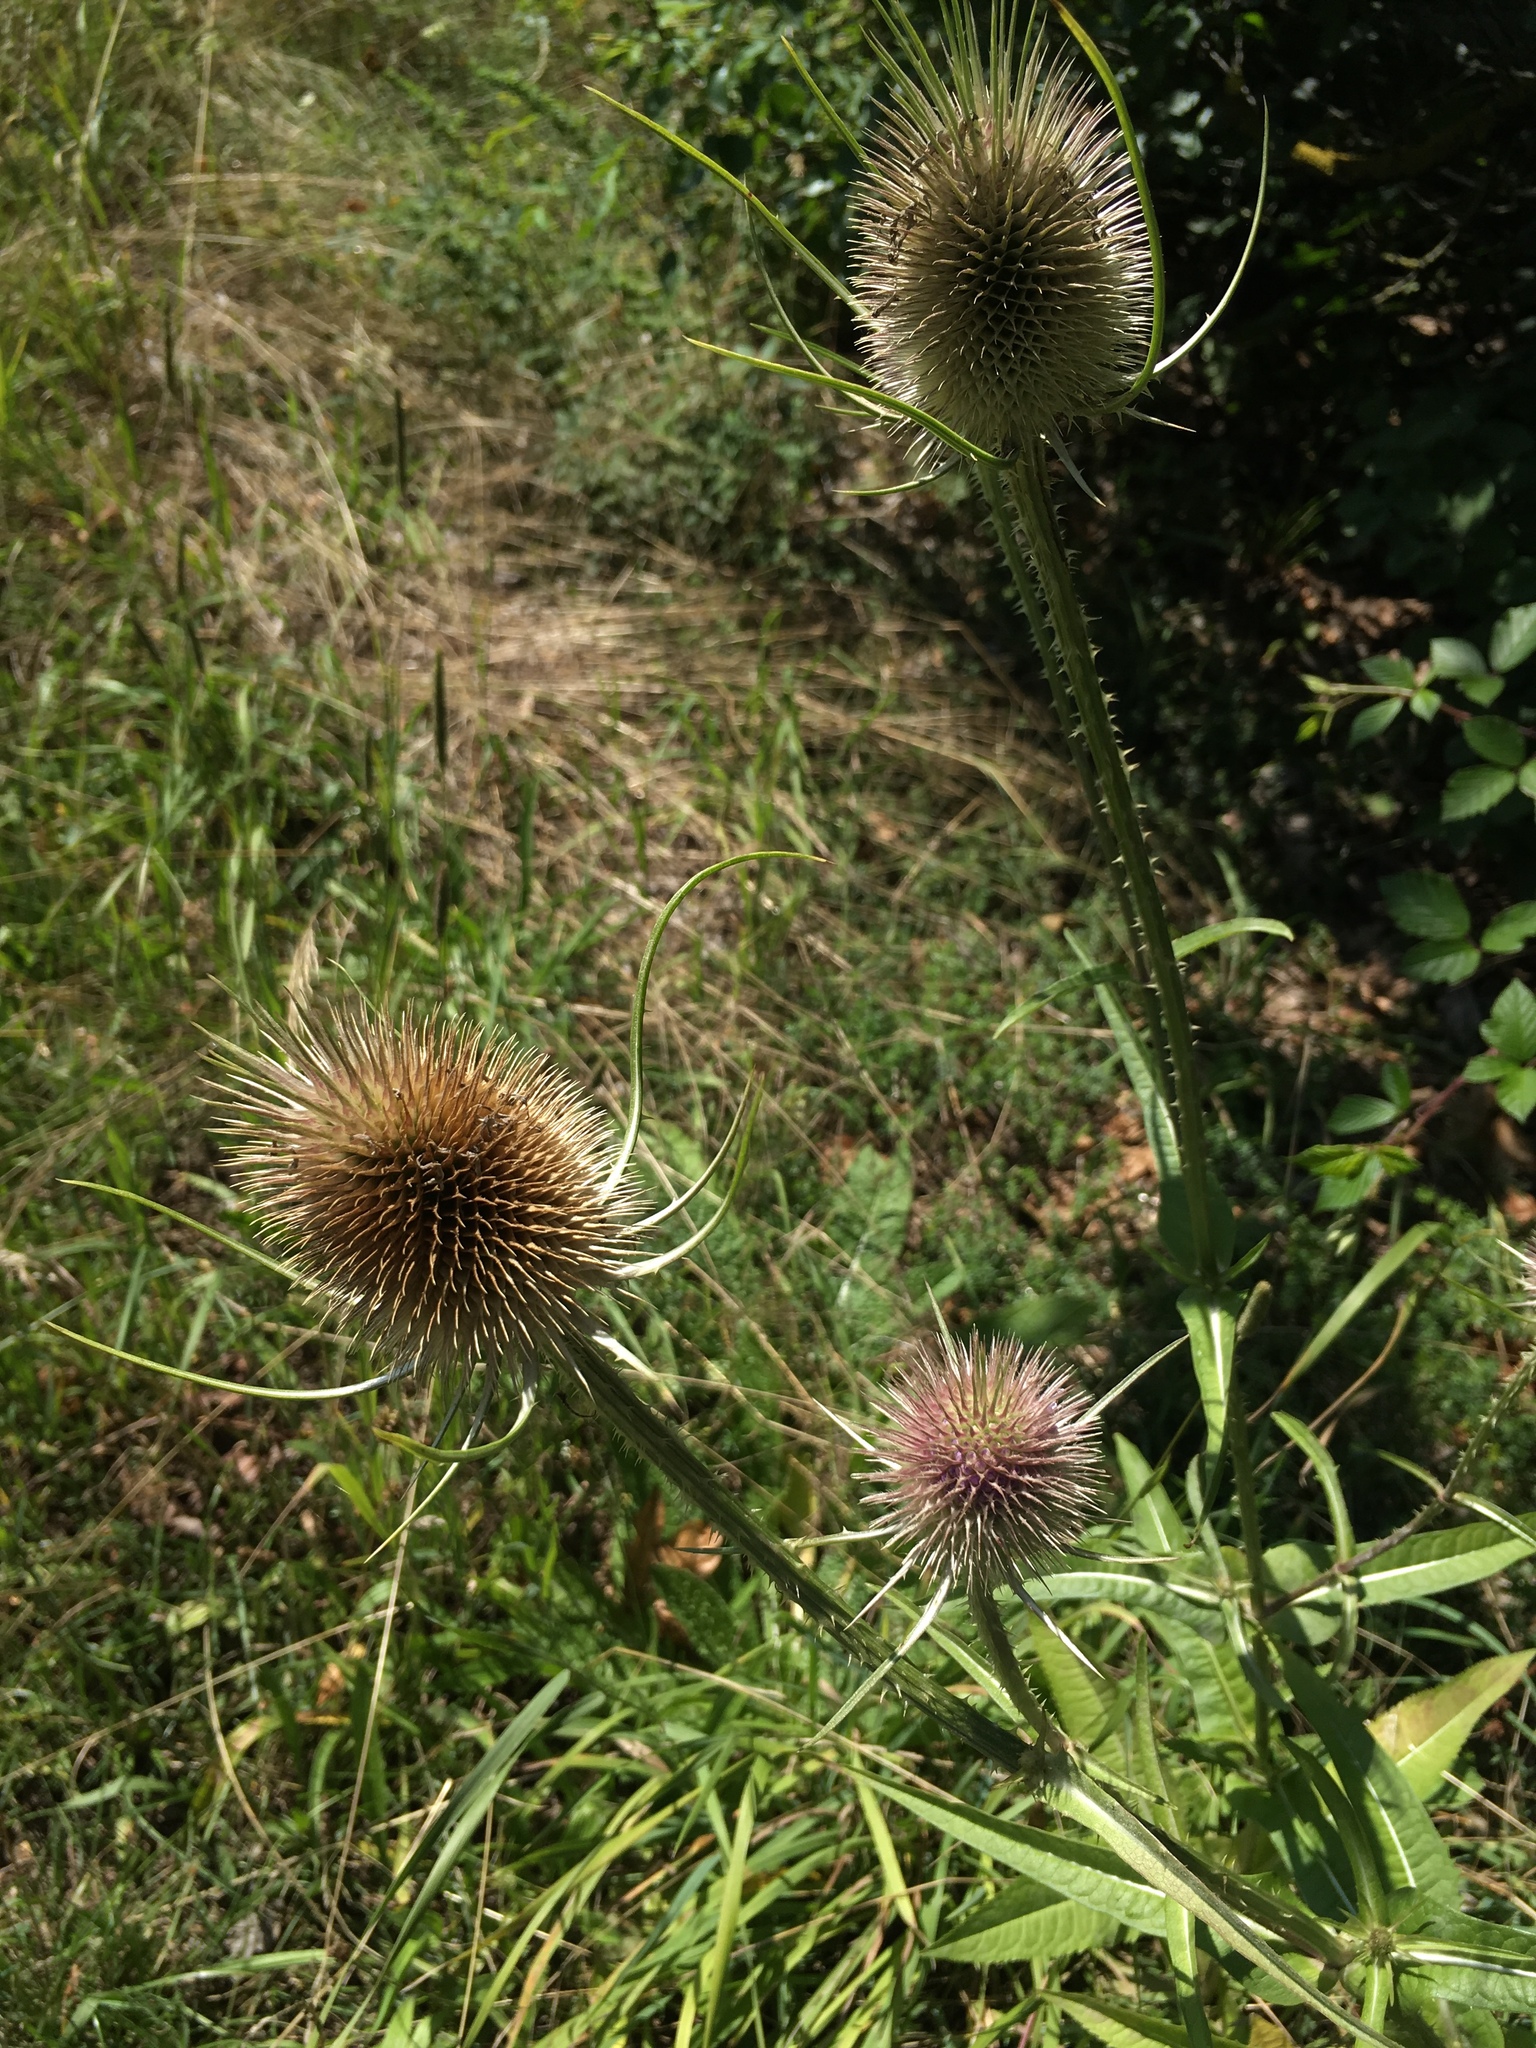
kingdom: Plantae
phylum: Tracheophyta
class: Magnoliopsida
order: Dipsacales
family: Caprifoliaceae
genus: Dipsacus
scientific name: Dipsacus fullonum
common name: Teasel
